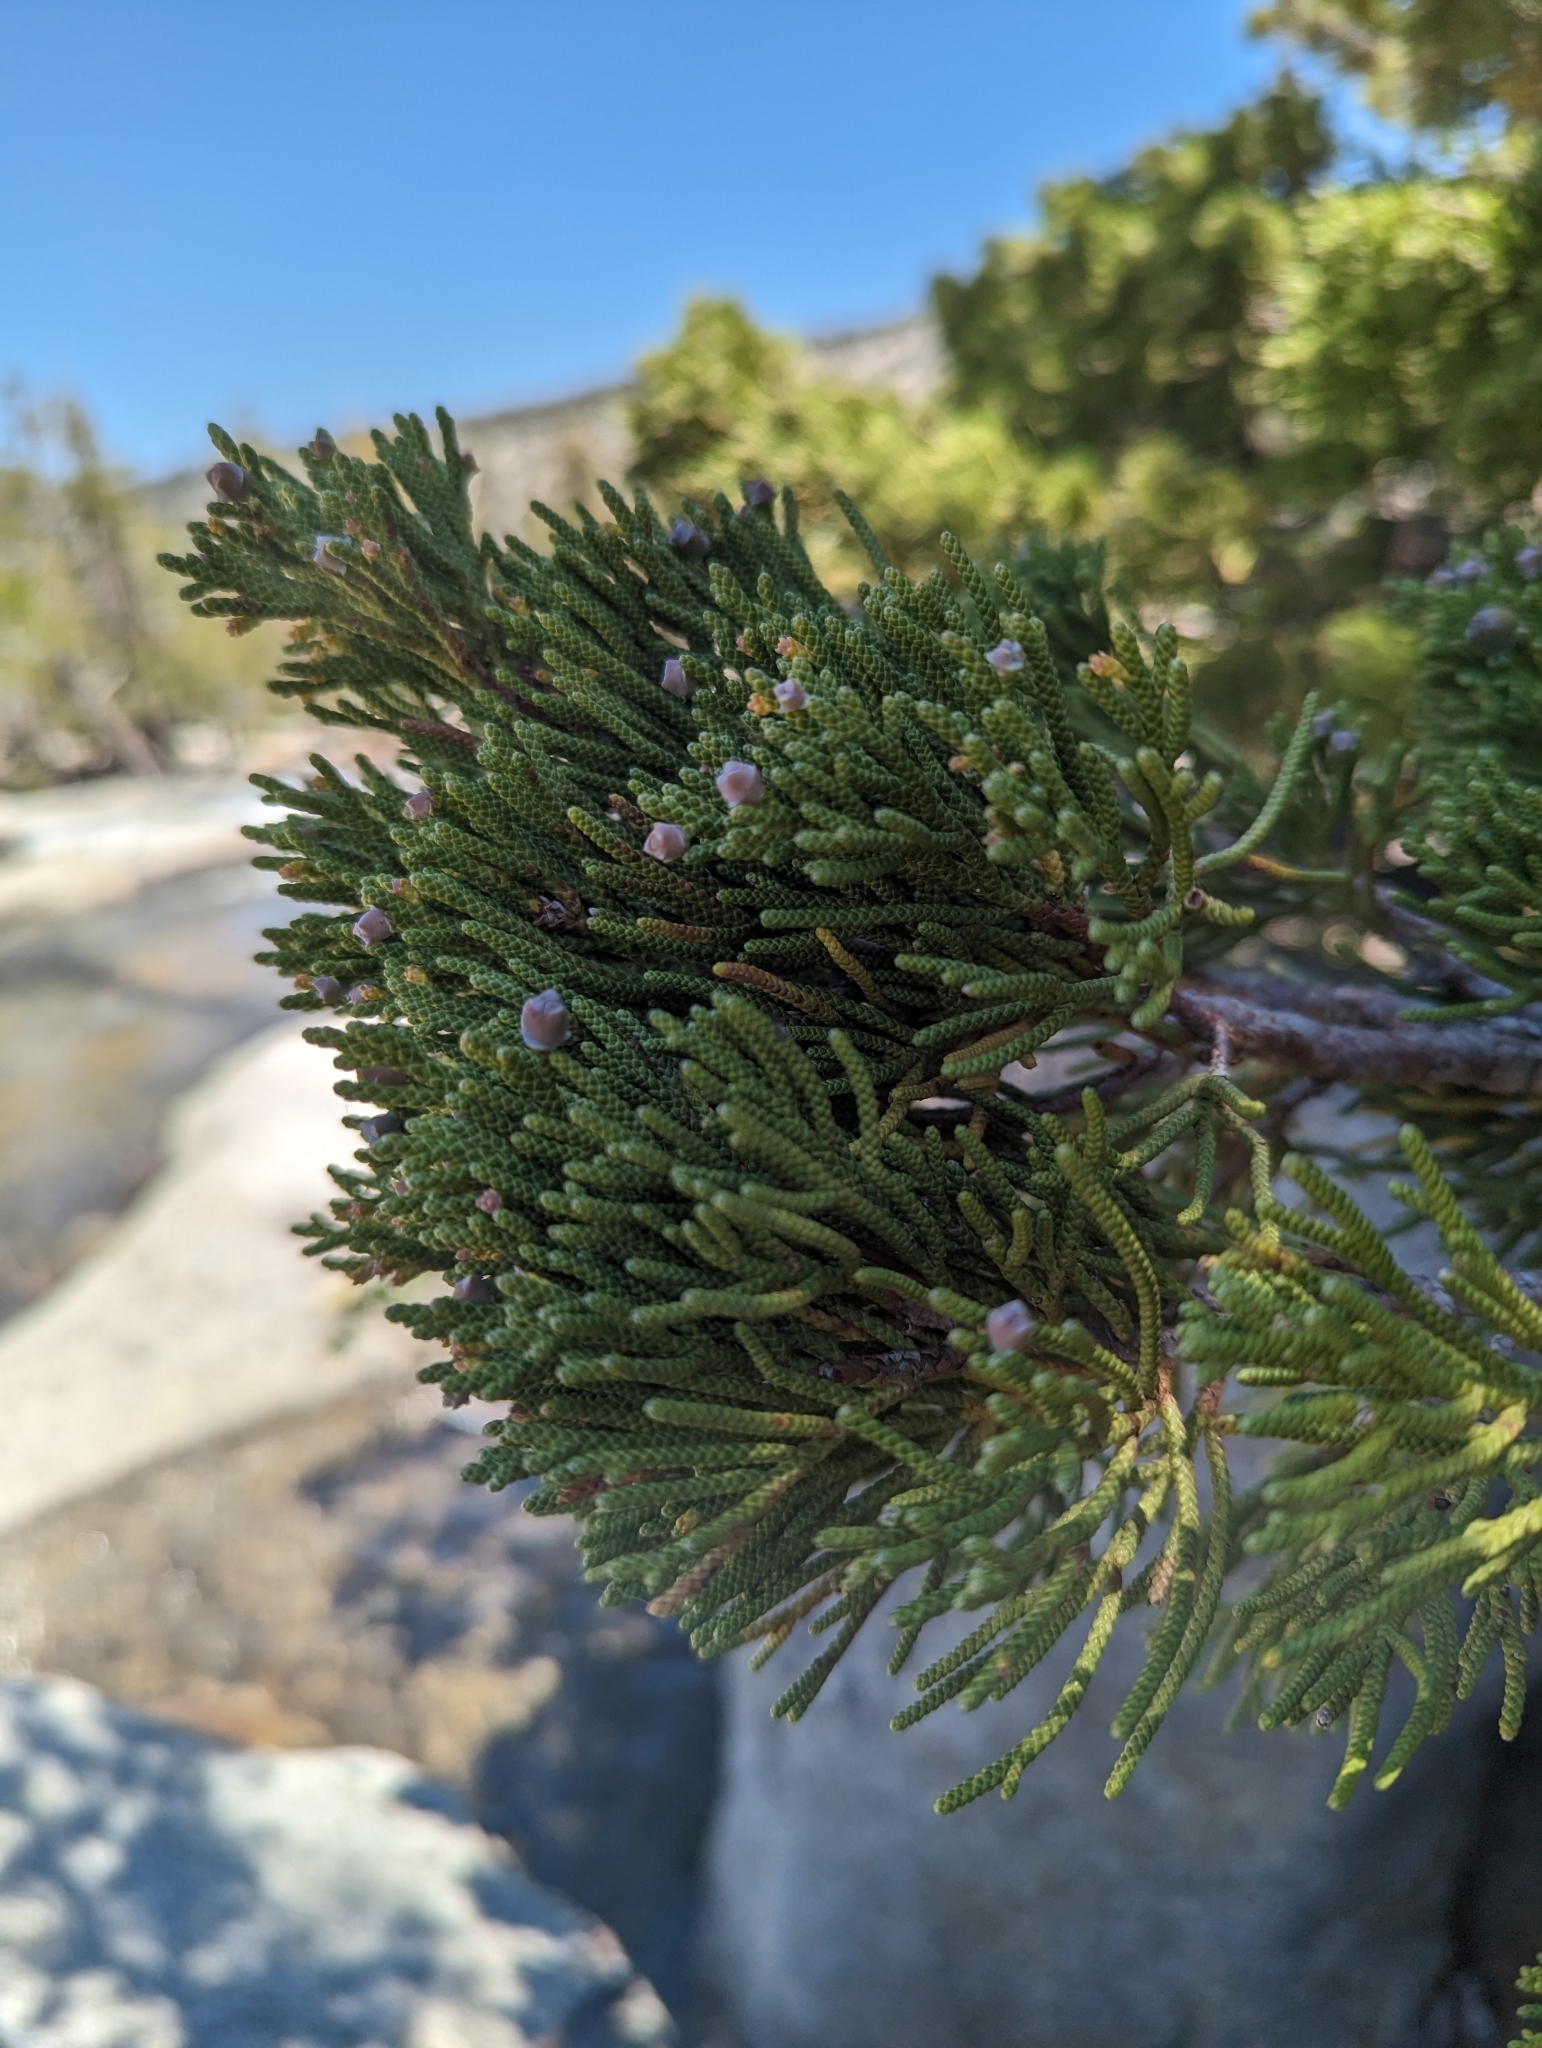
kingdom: Plantae
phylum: Tracheophyta
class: Pinopsida
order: Pinales
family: Cupressaceae
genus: Juniperus
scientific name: Juniperus occidentalis
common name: Western juniper
